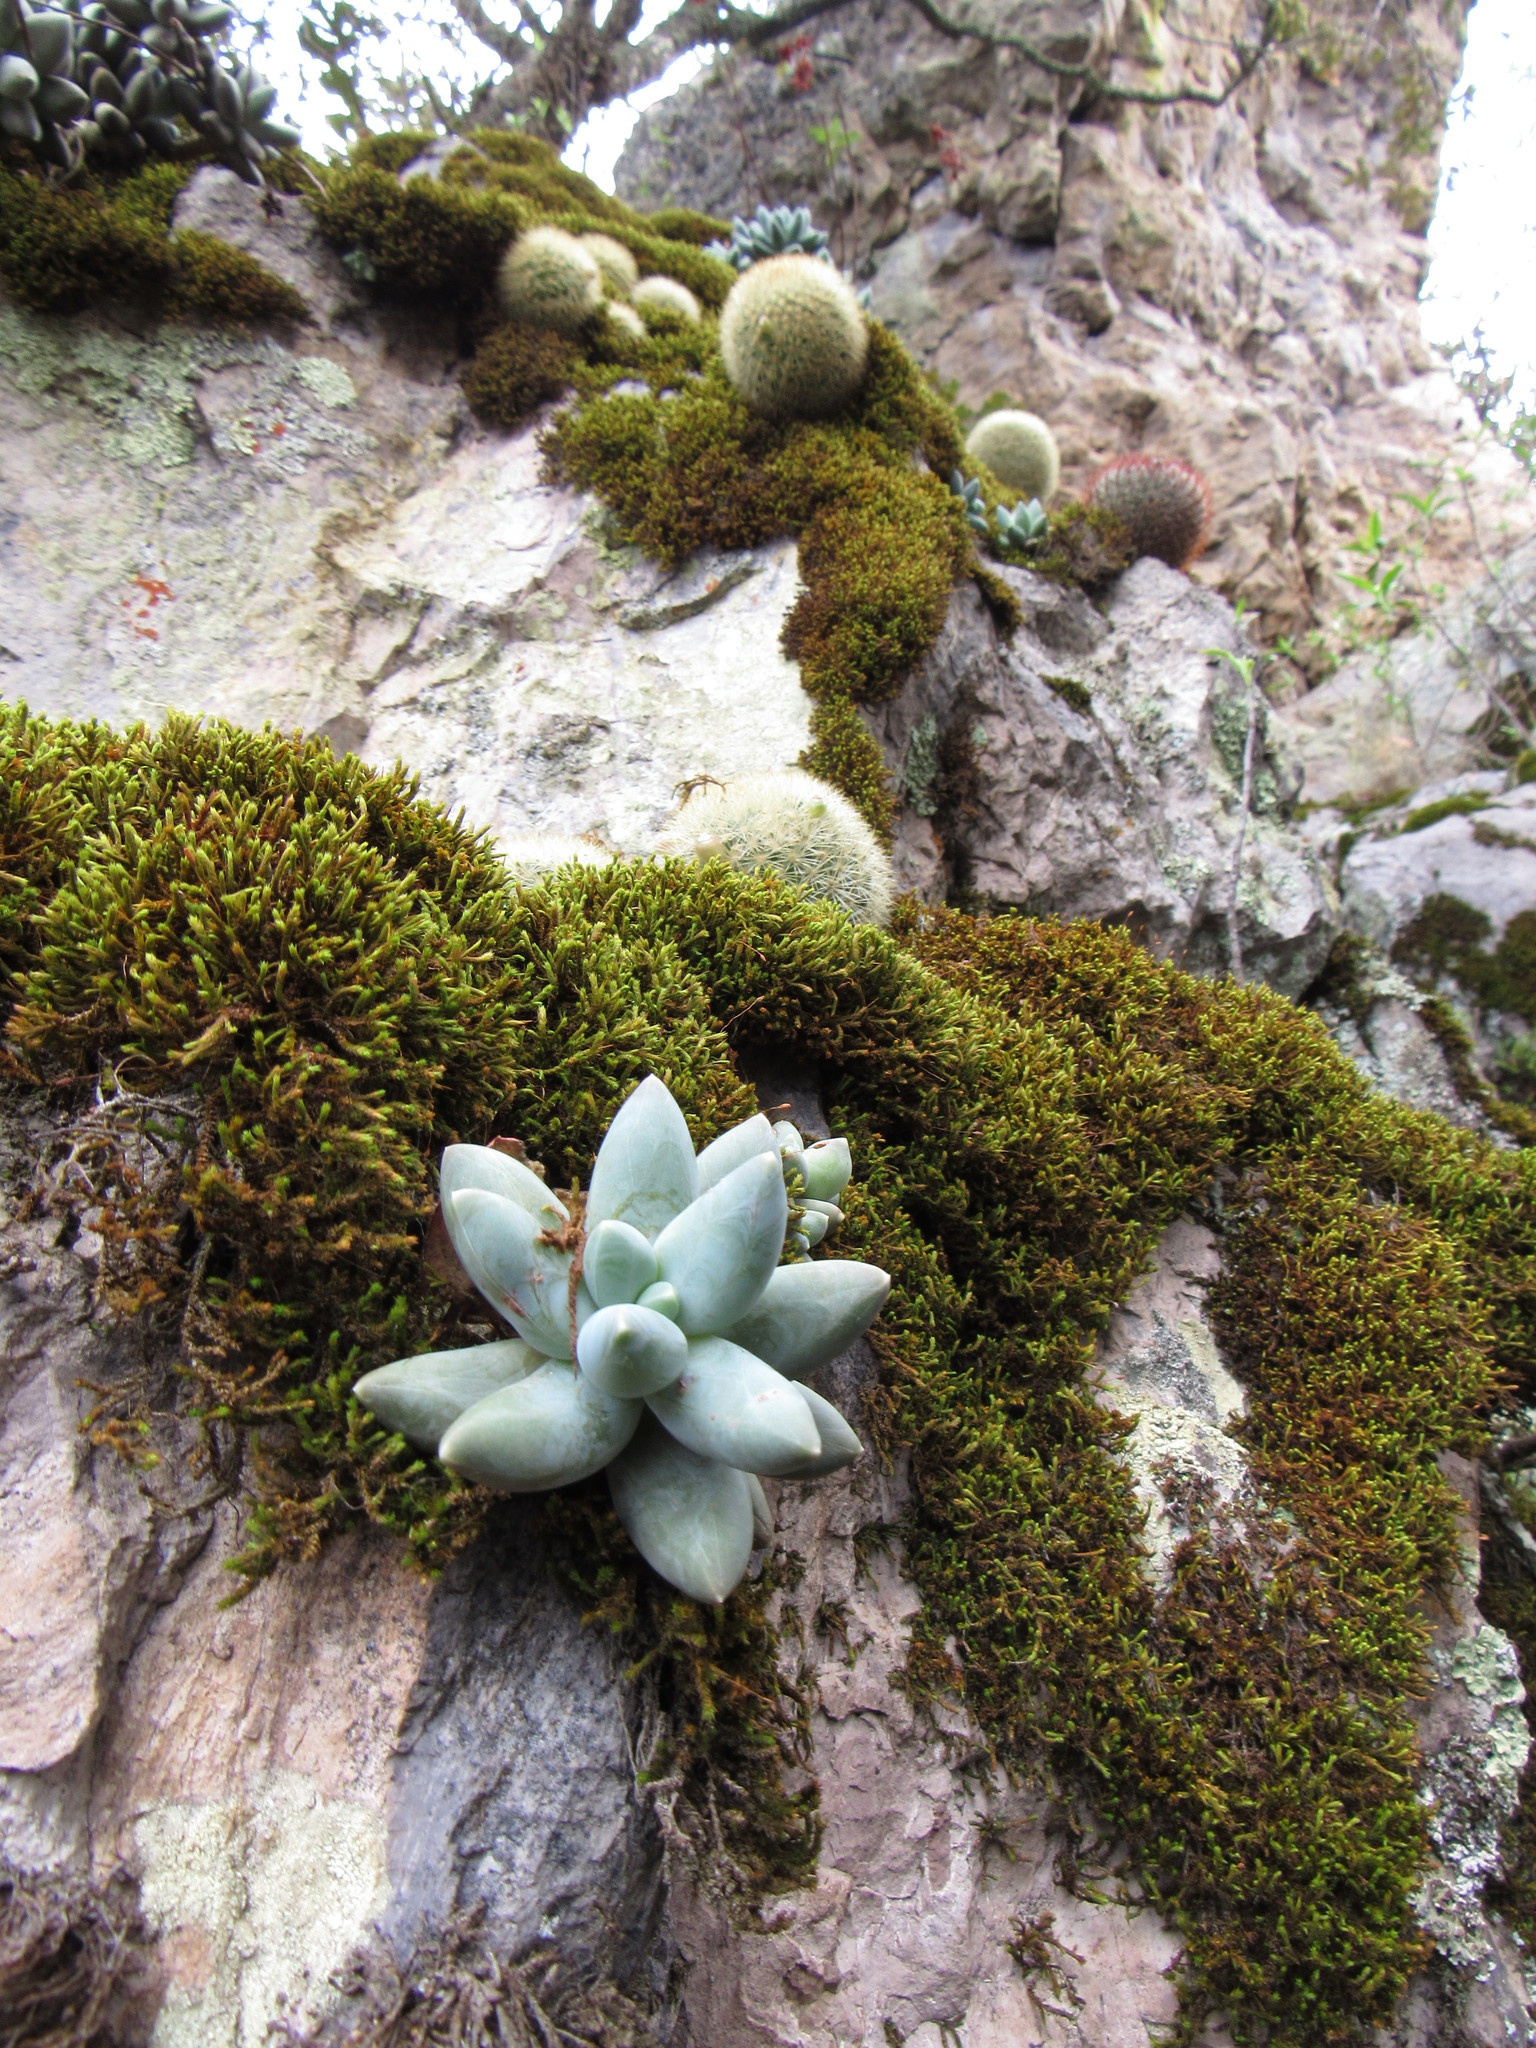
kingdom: Plantae
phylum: Tracheophyta
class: Magnoliopsida
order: Saxifragales
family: Crassulaceae
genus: Pachyphytum
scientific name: Pachyphytum compactum
